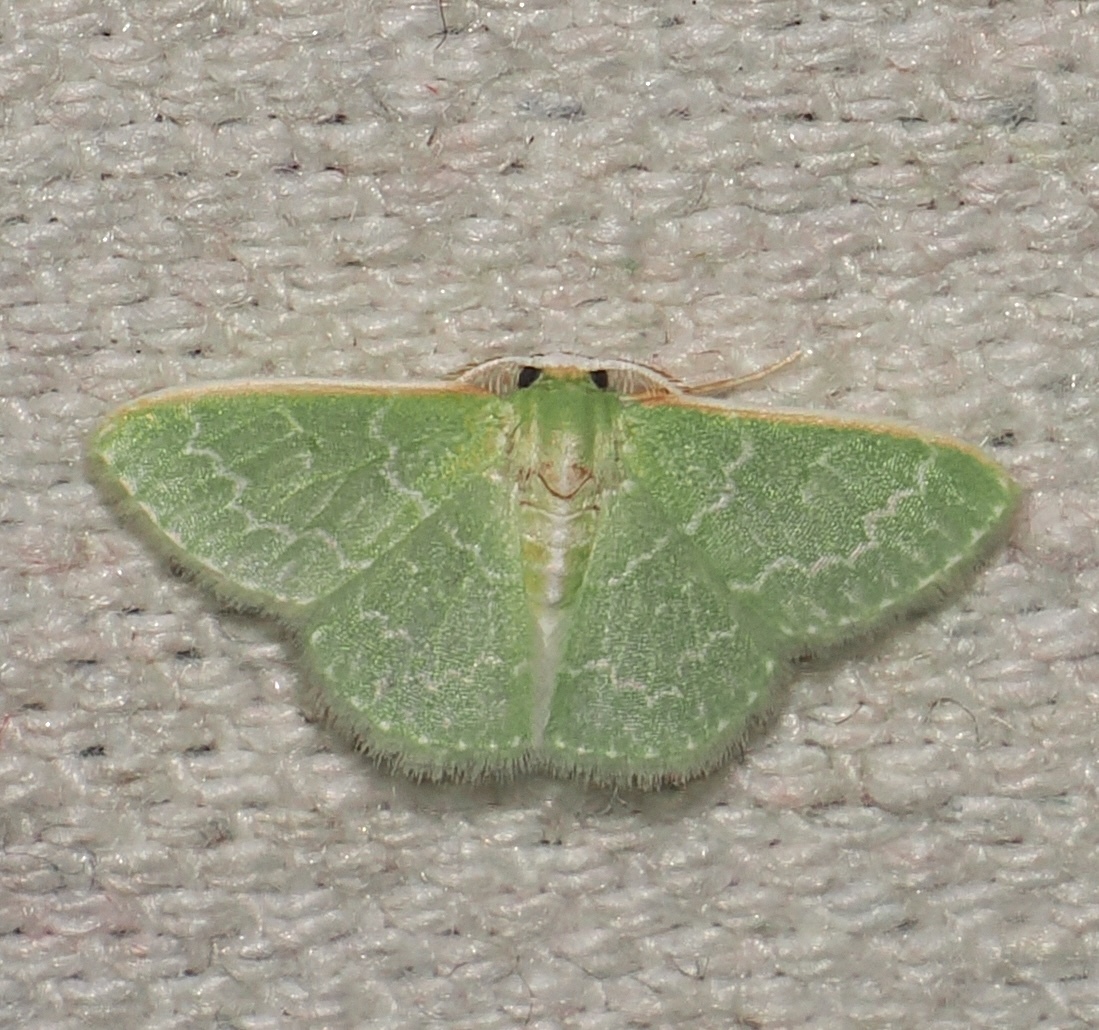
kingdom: Animalia
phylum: Arthropoda
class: Insecta
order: Lepidoptera
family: Geometridae
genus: Synchlora
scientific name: Synchlora frondaria
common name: Southern emerald
